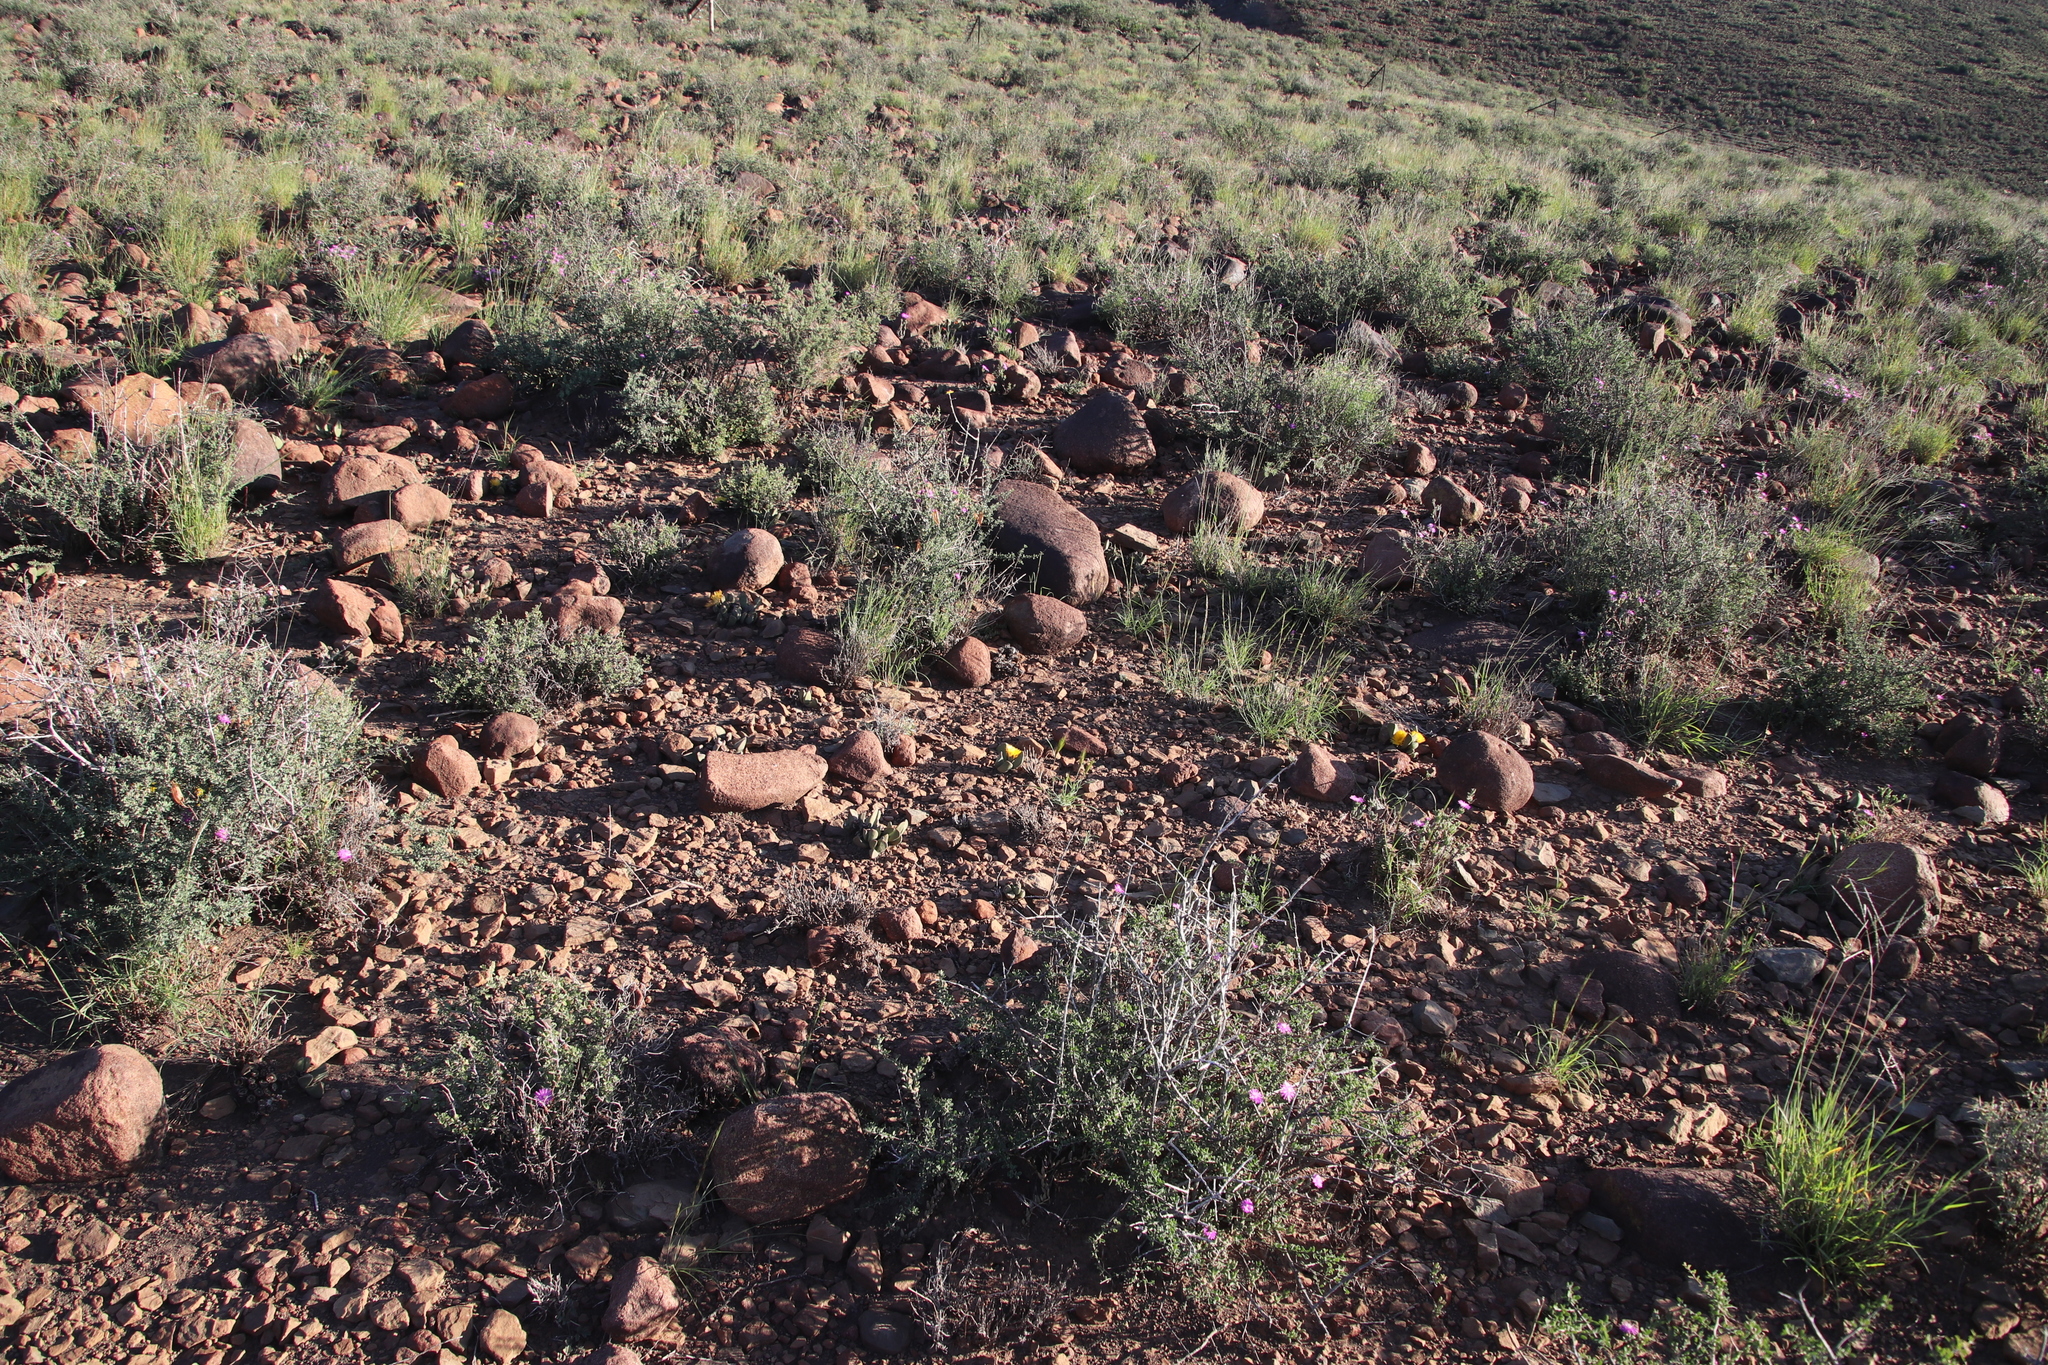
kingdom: Plantae
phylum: Tracheophyta
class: Magnoliopsida
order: Caryophyllales
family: Aizoaceae
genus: Pleiospilos
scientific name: Pleiospilos compactus
